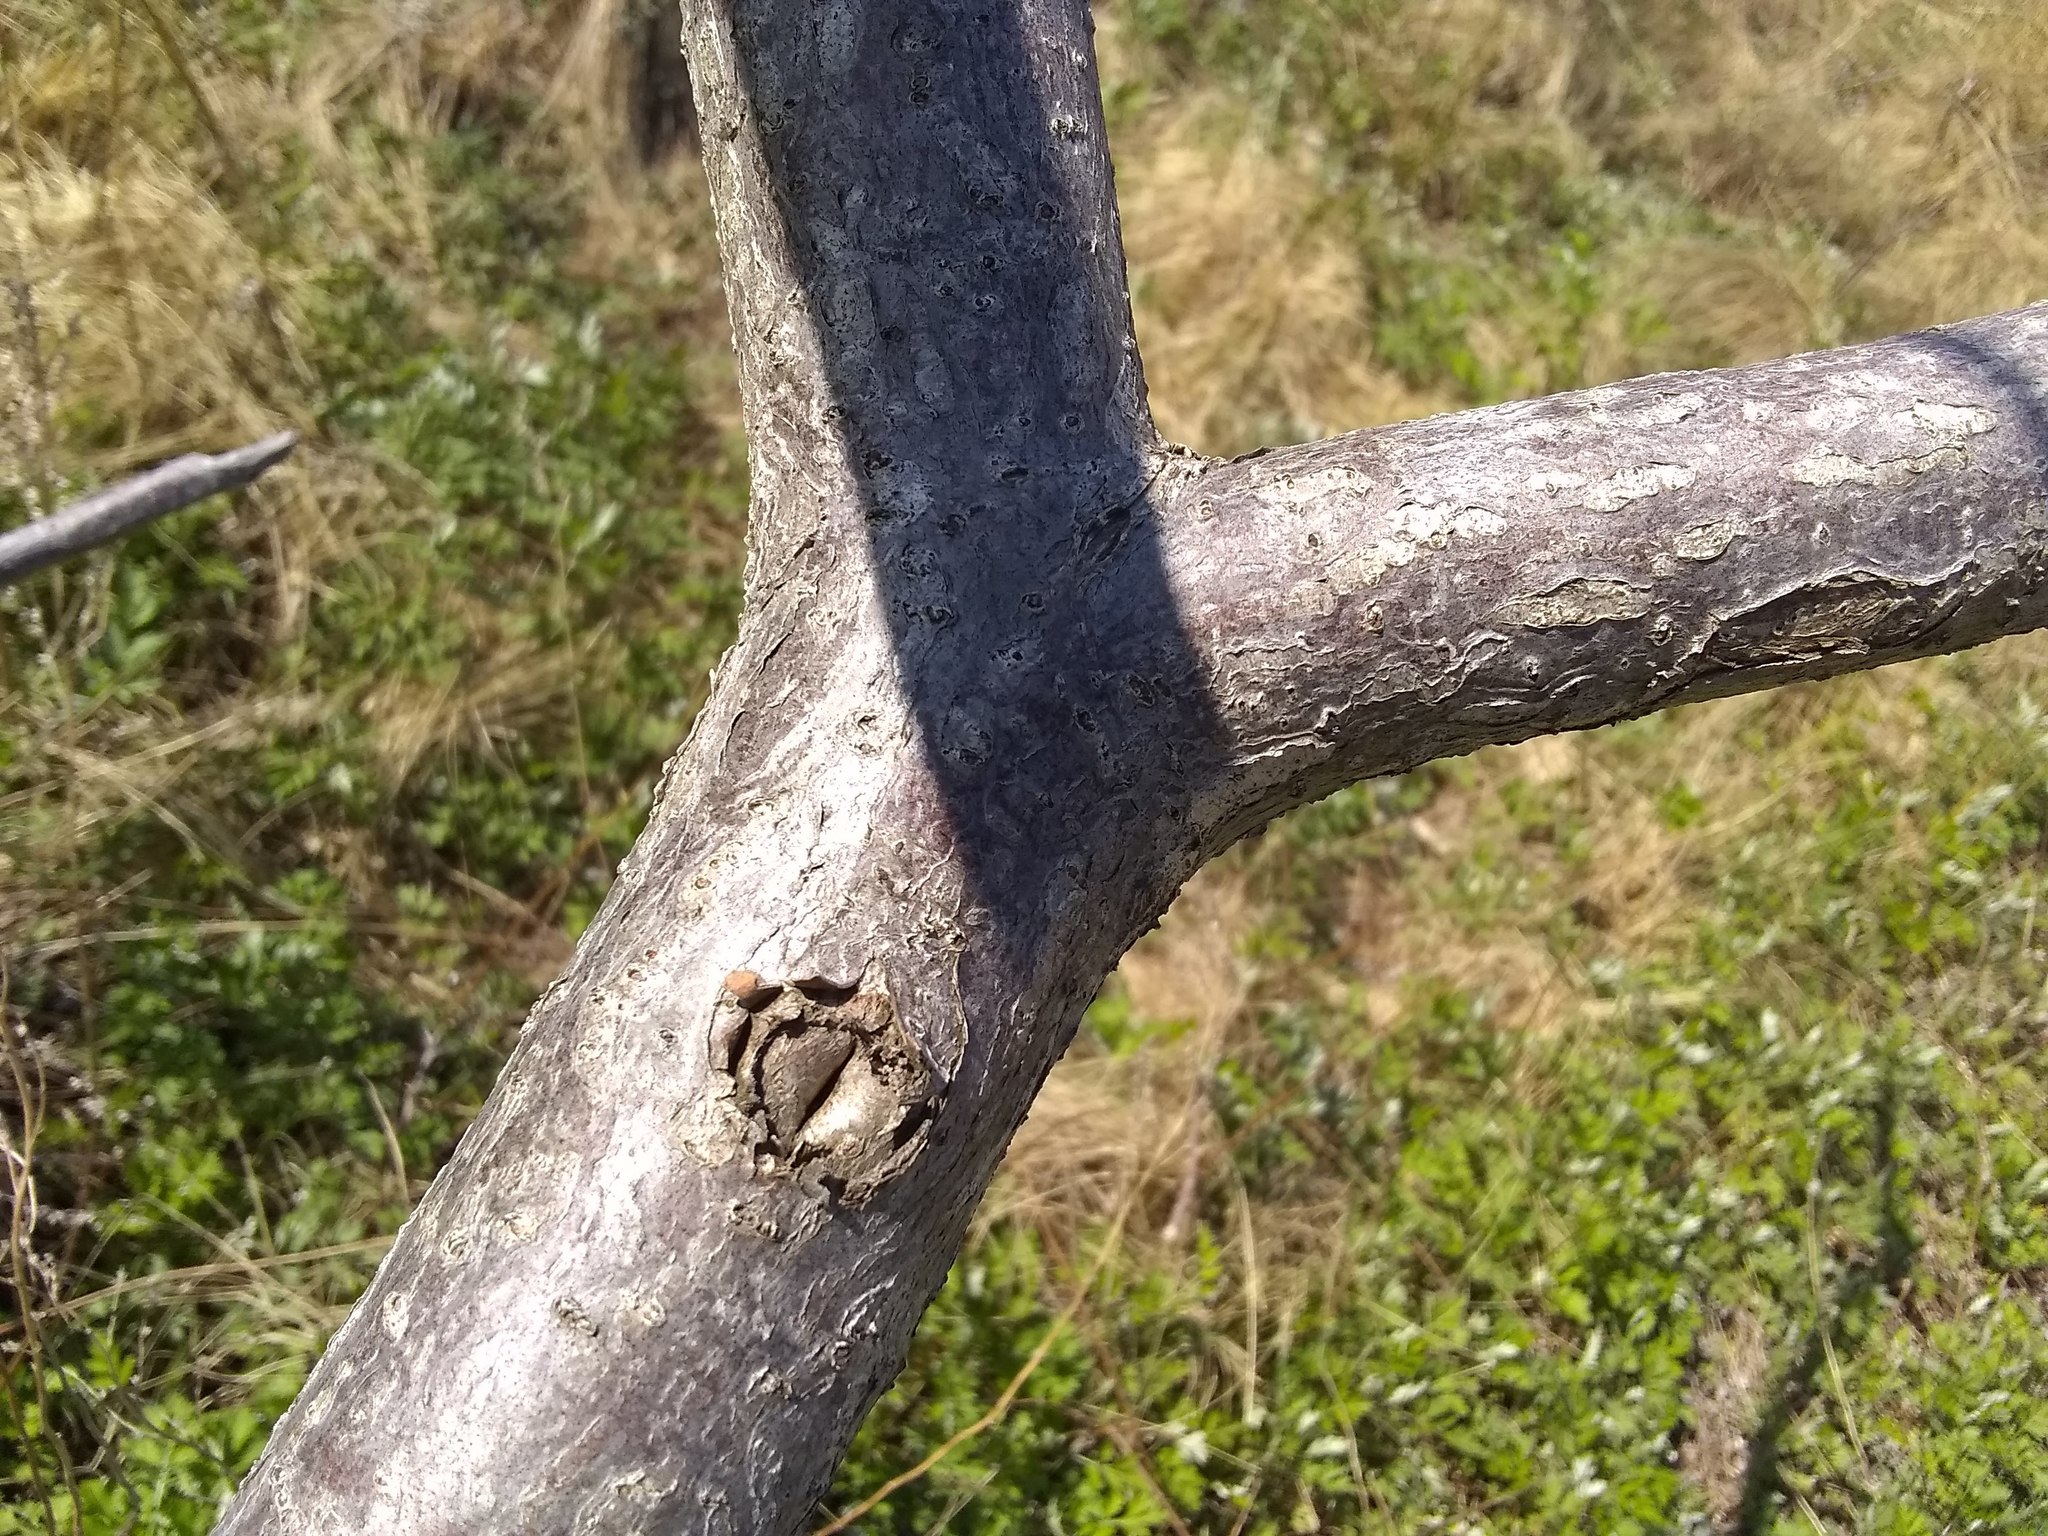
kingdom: Plantae
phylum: Tracheophyta
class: Magnoliopsida
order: Rosales
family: Rosaceae
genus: Prunus
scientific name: Prunus serotina
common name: Black cherry
